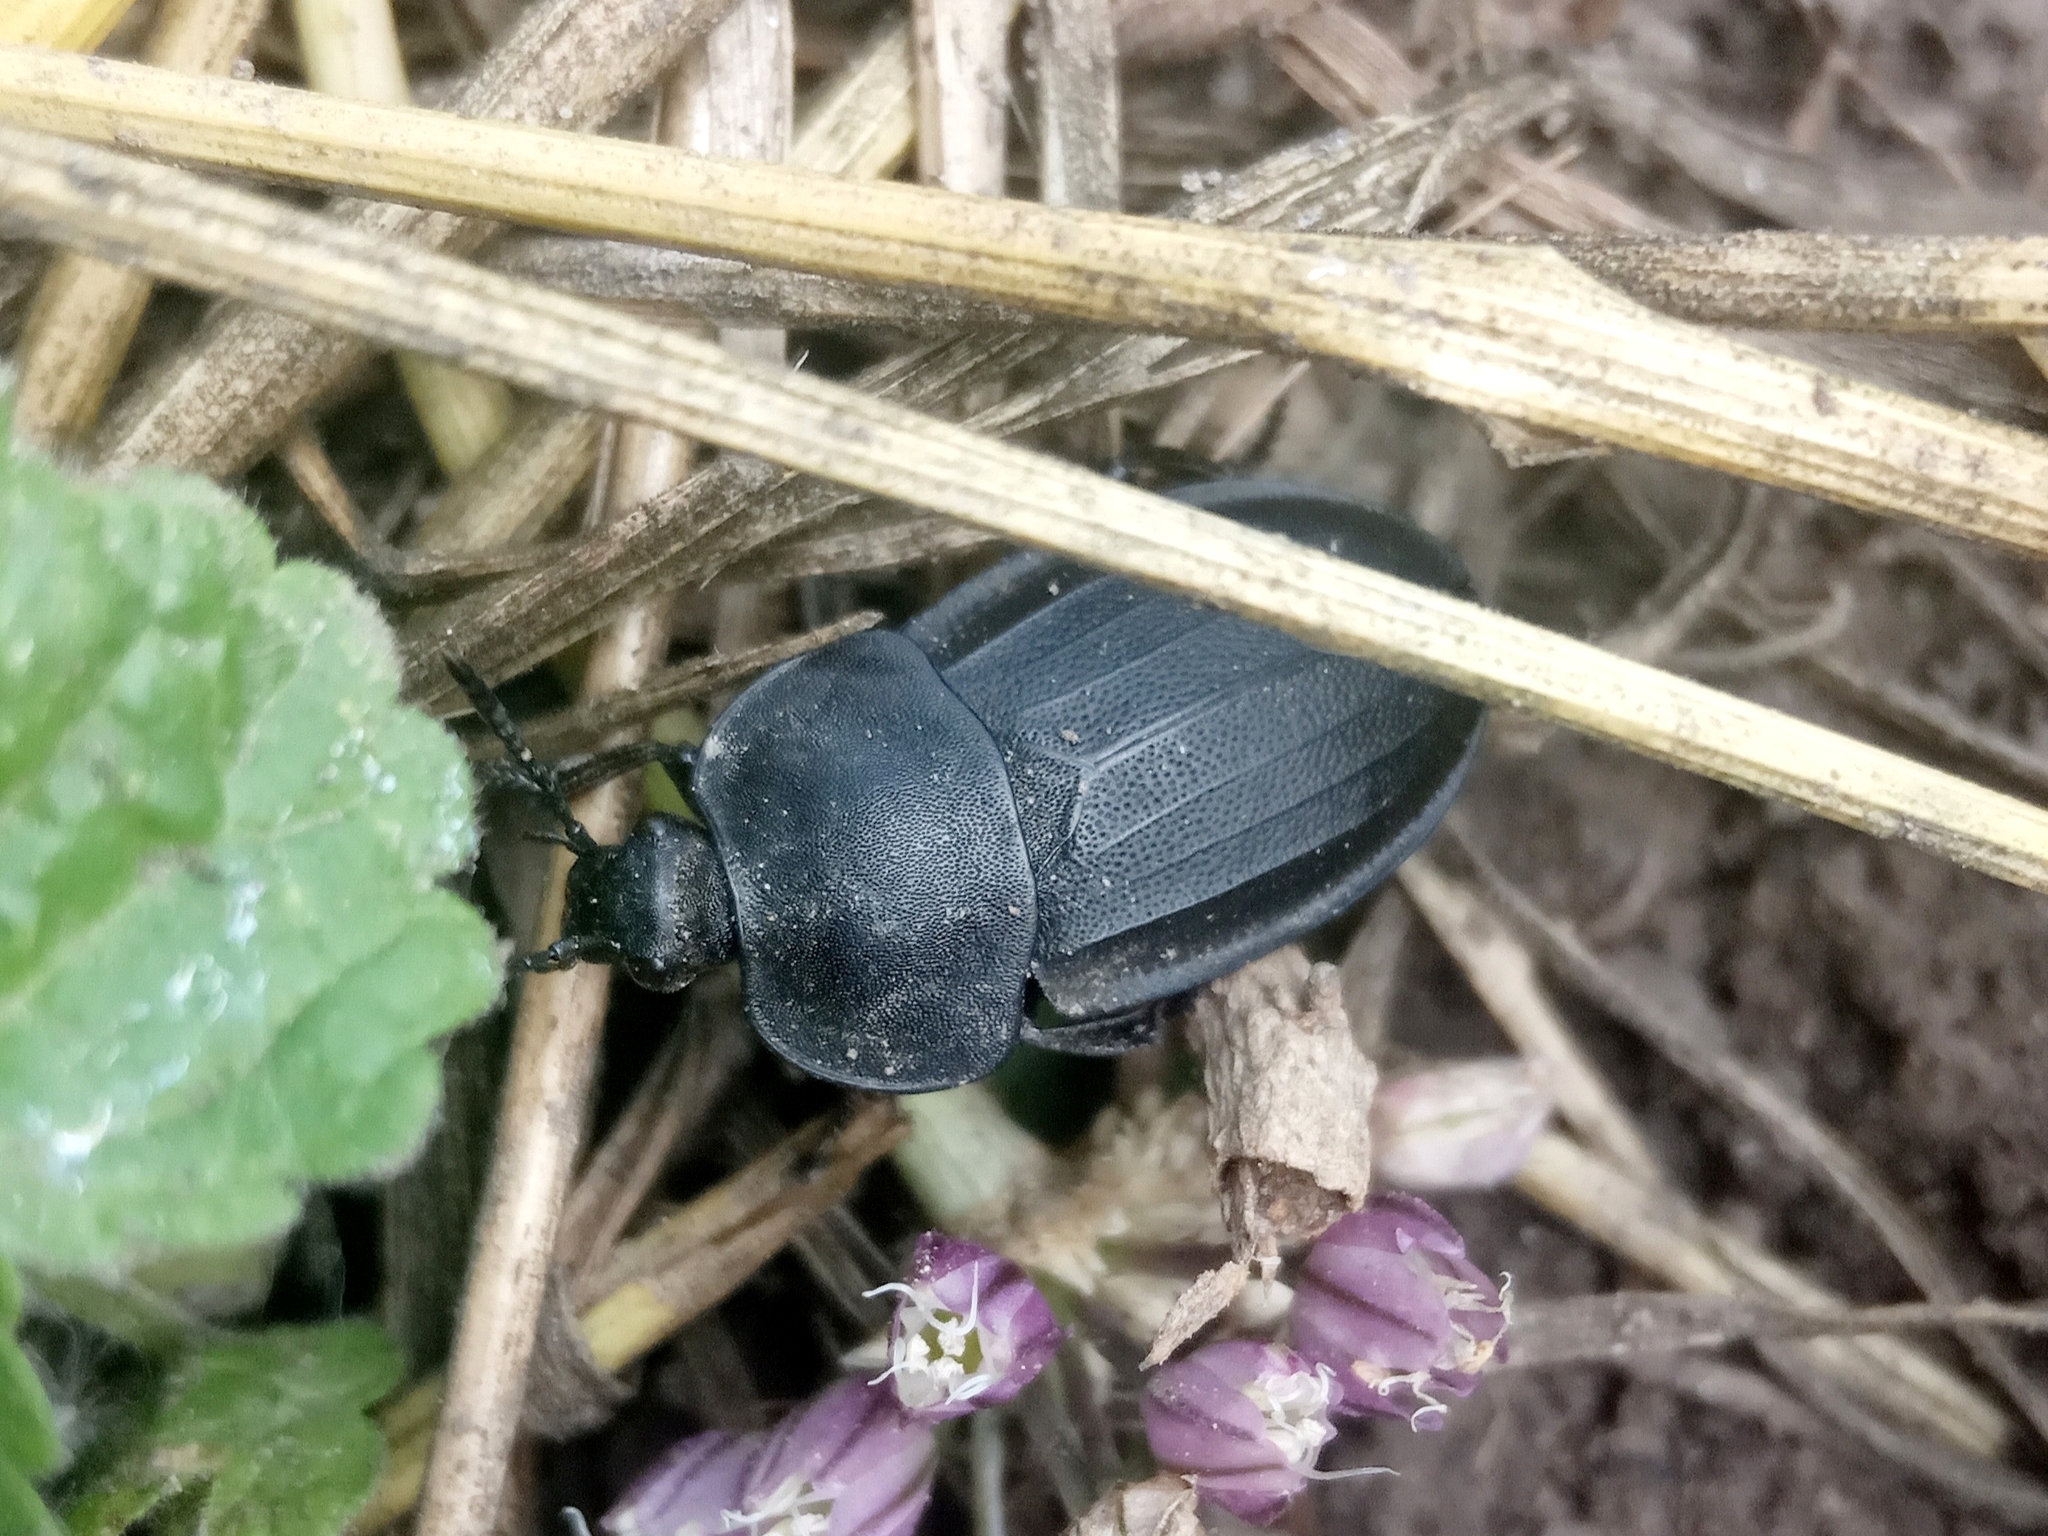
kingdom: Animalia
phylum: Arthropoda
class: Insecta
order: Coleoptera
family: Staphylinidae
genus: Silpha
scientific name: Silpha obscura
